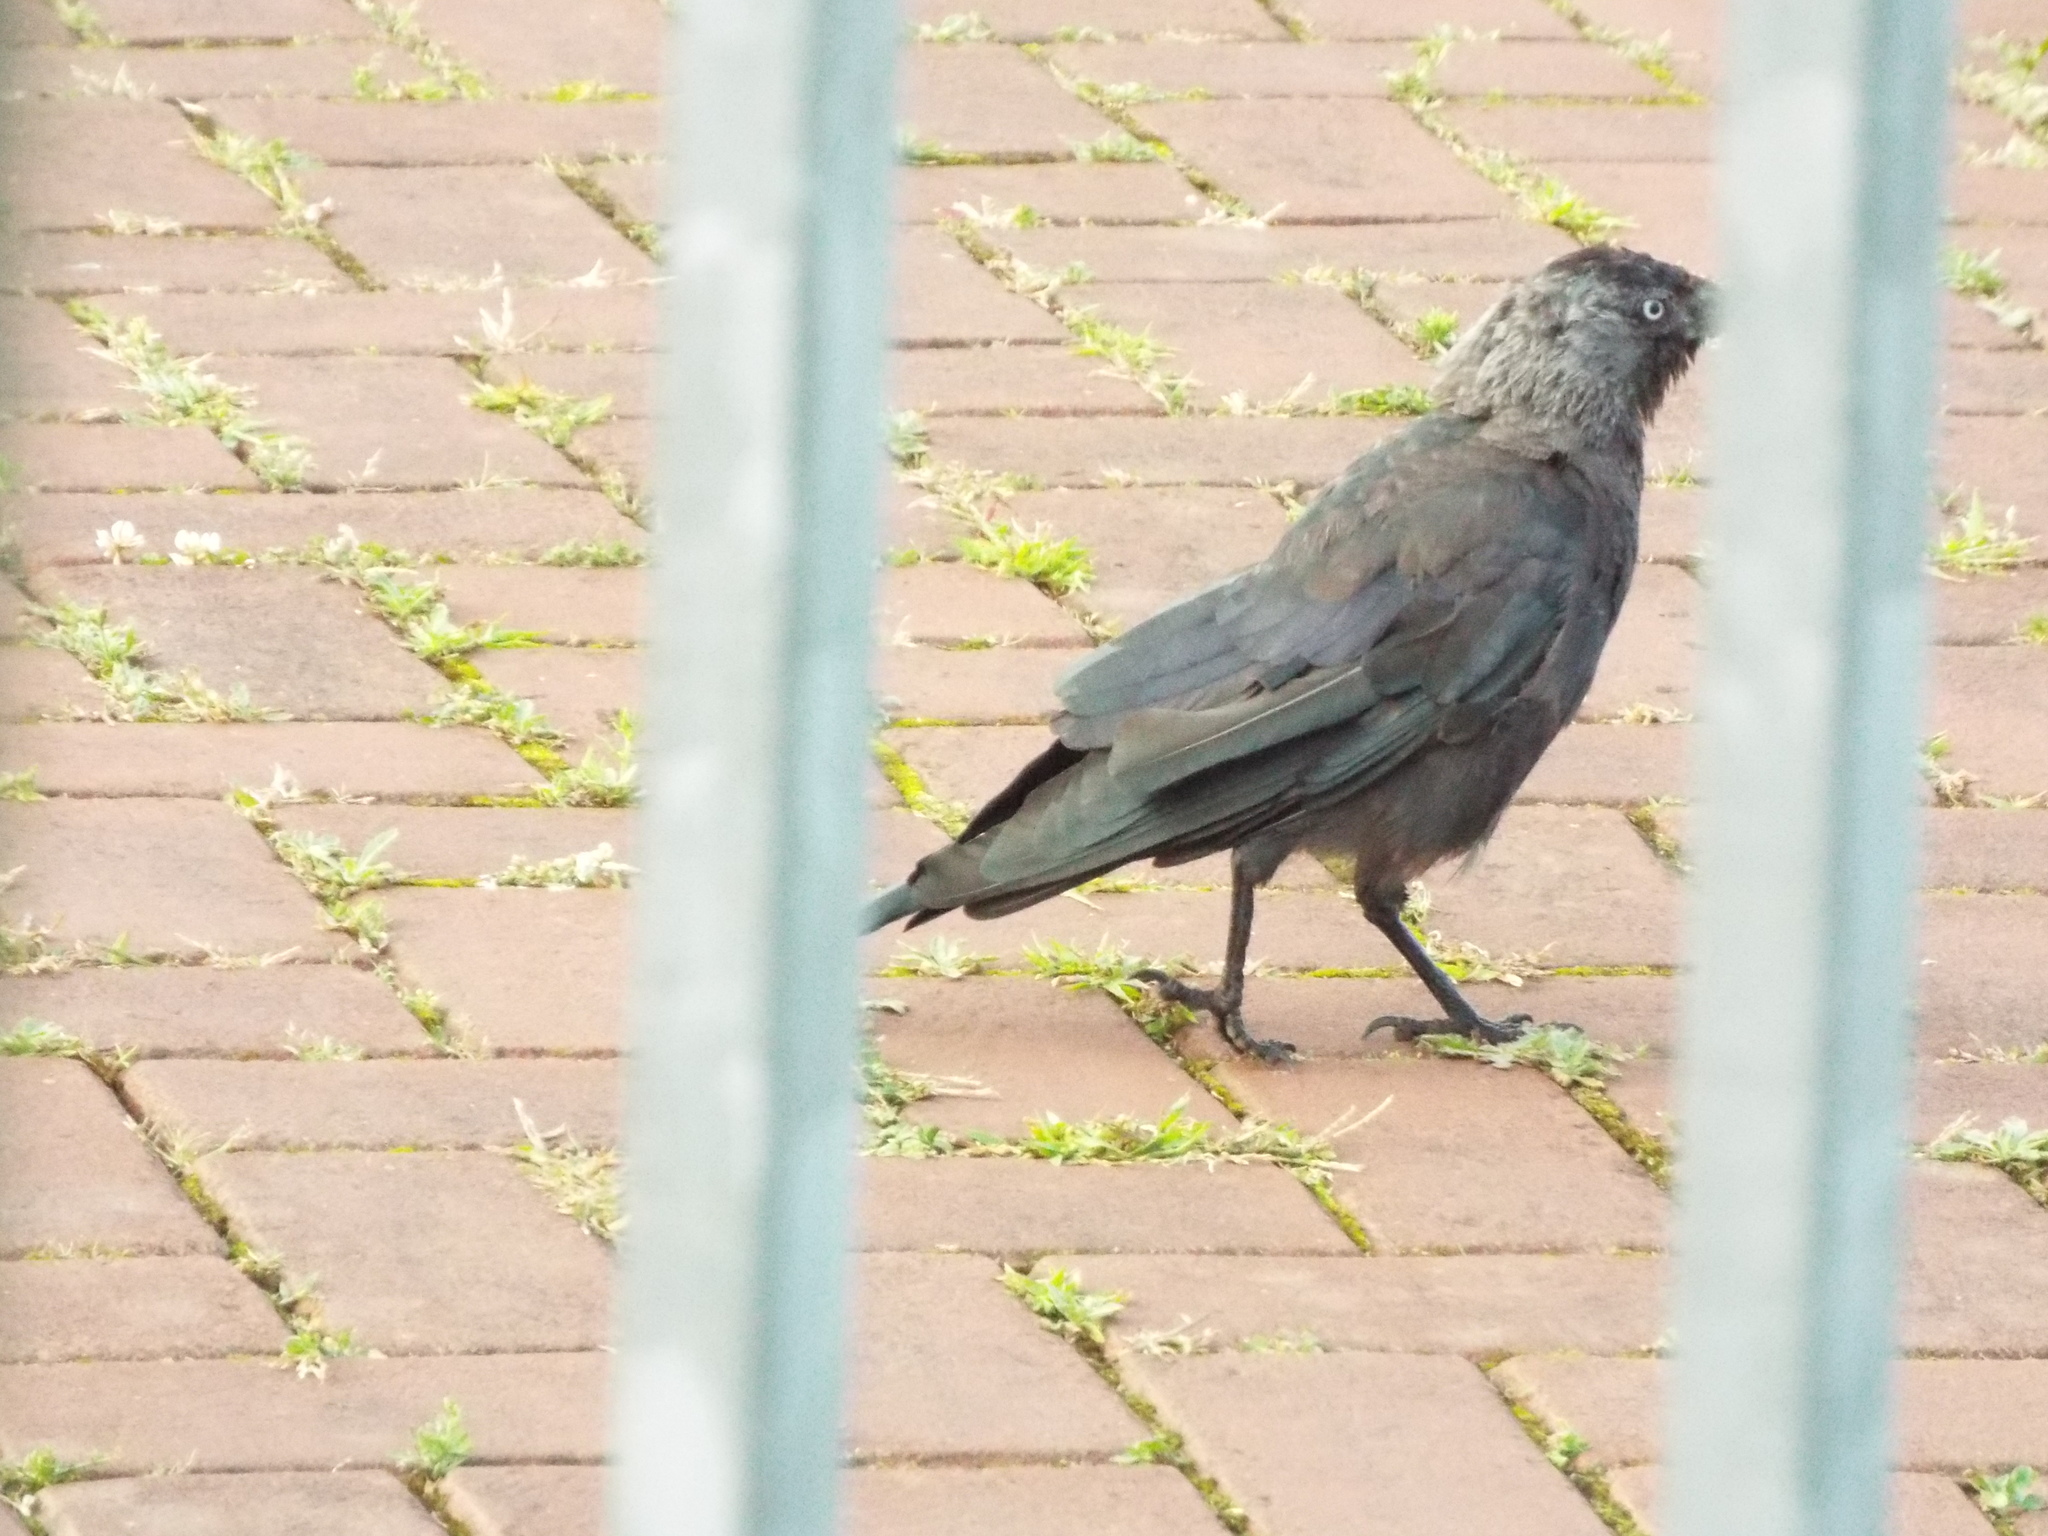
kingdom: Animalia
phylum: Chordata
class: Aves
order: Passeriformes
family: Corvidae
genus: Coloeus
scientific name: Coloeus monedula
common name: Western jackdaw
